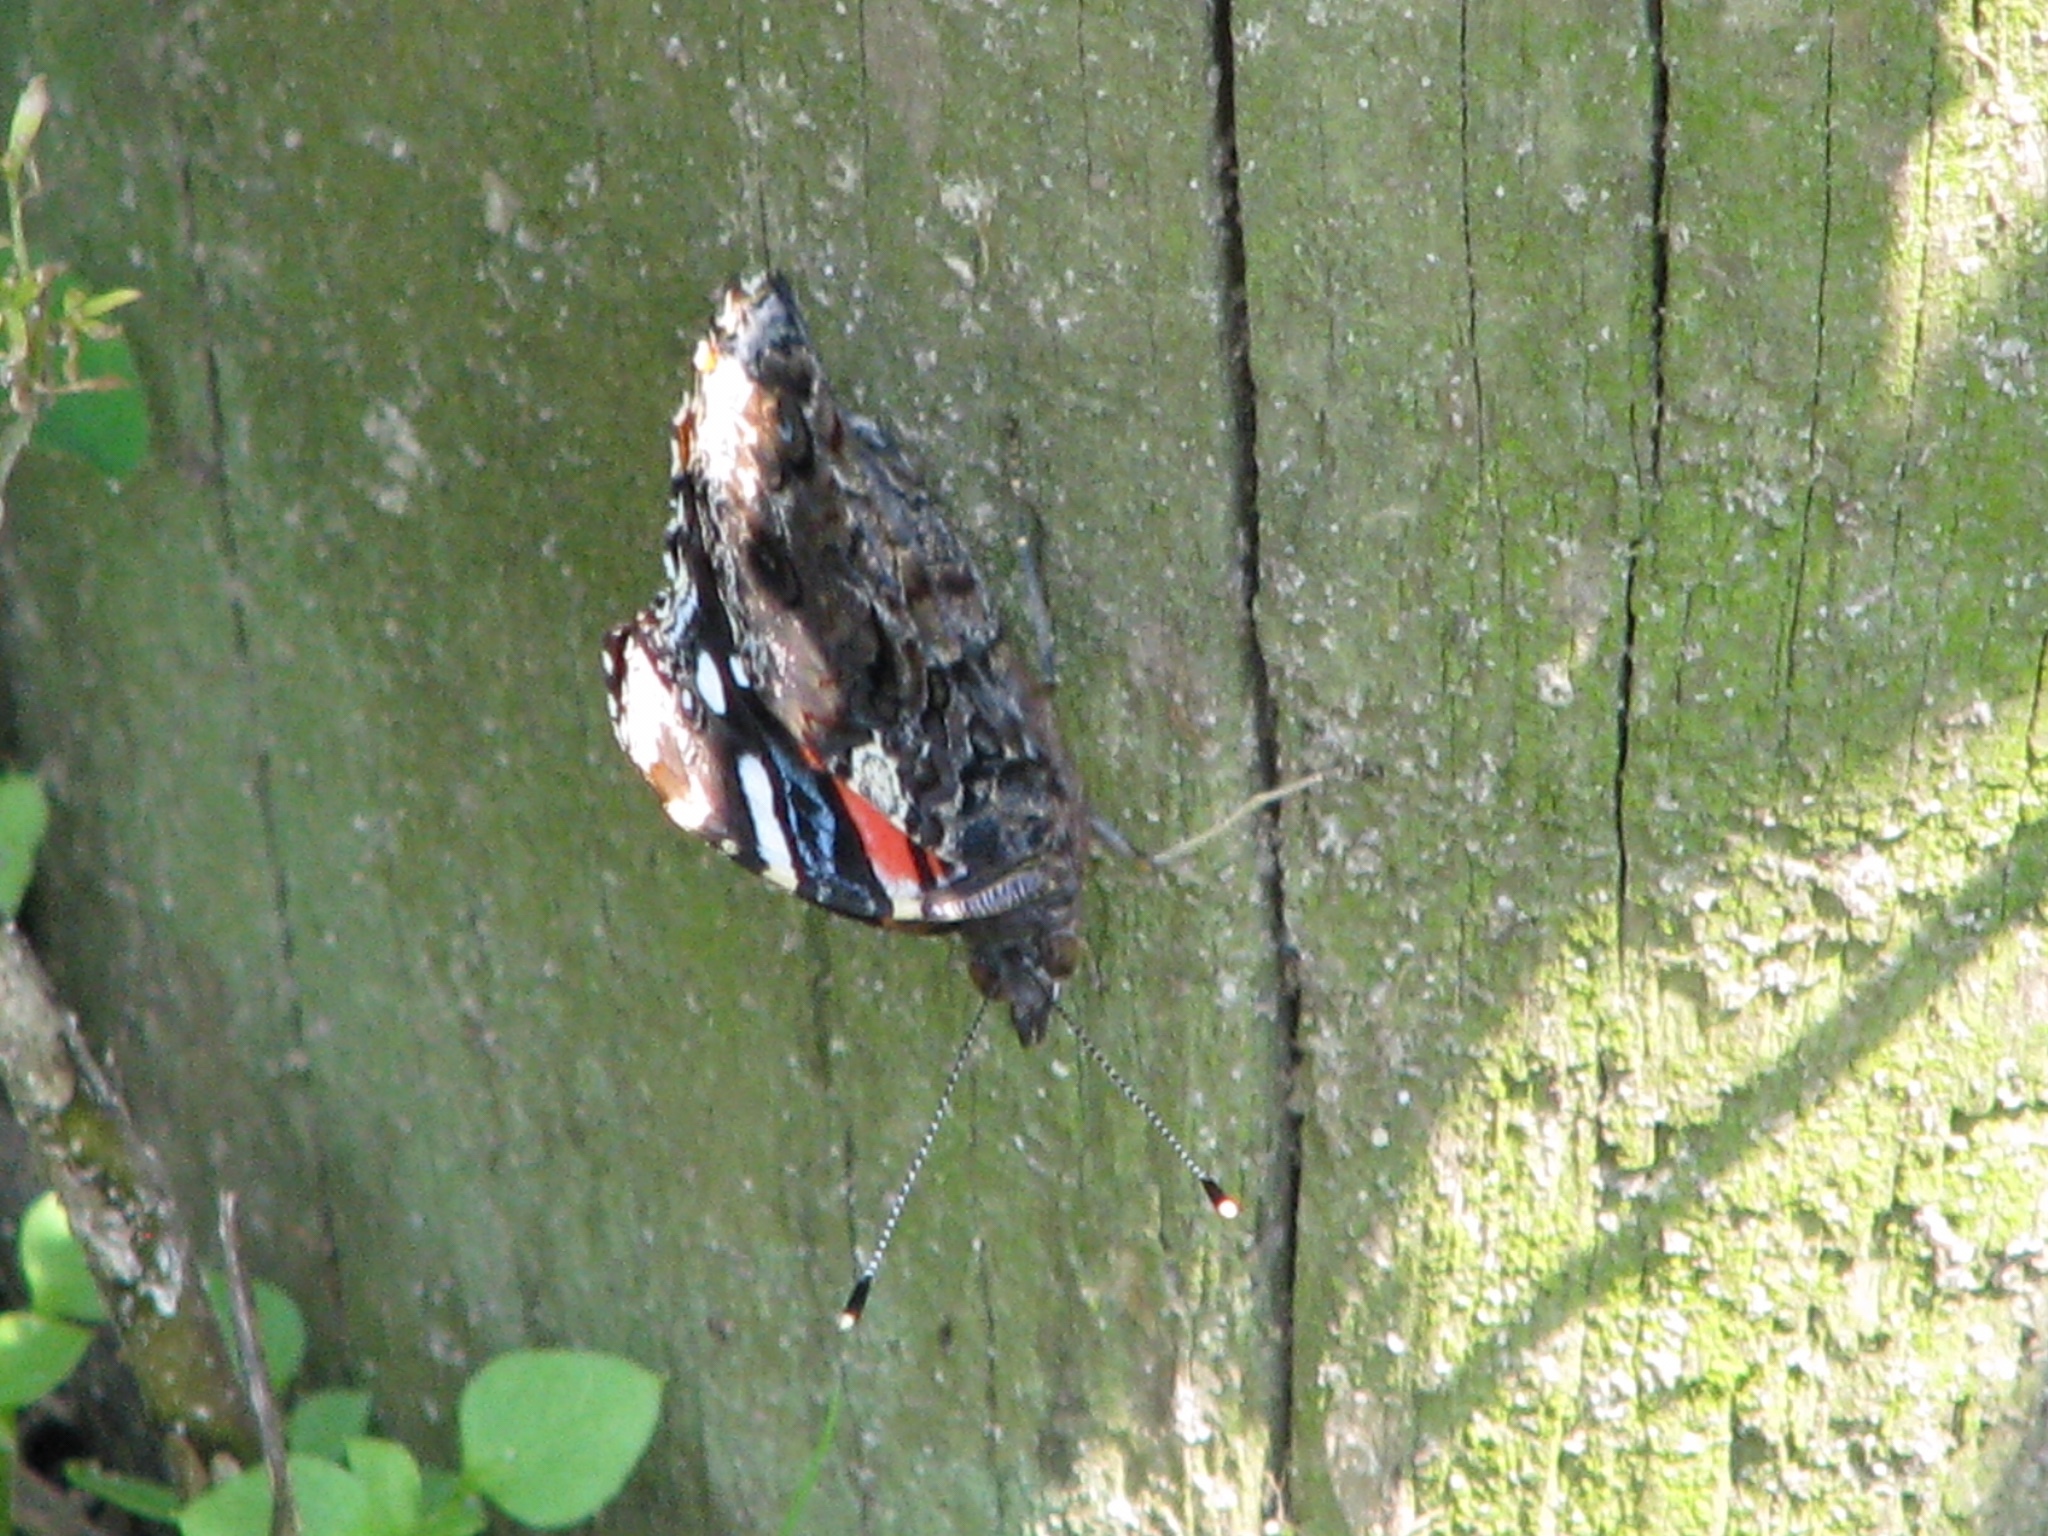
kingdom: Animalia
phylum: Arthropoda
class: Insecta
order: Lepidoptera
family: Nymphalidae
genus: Vanessa
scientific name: Vanessa atalanta
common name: Red admiral
